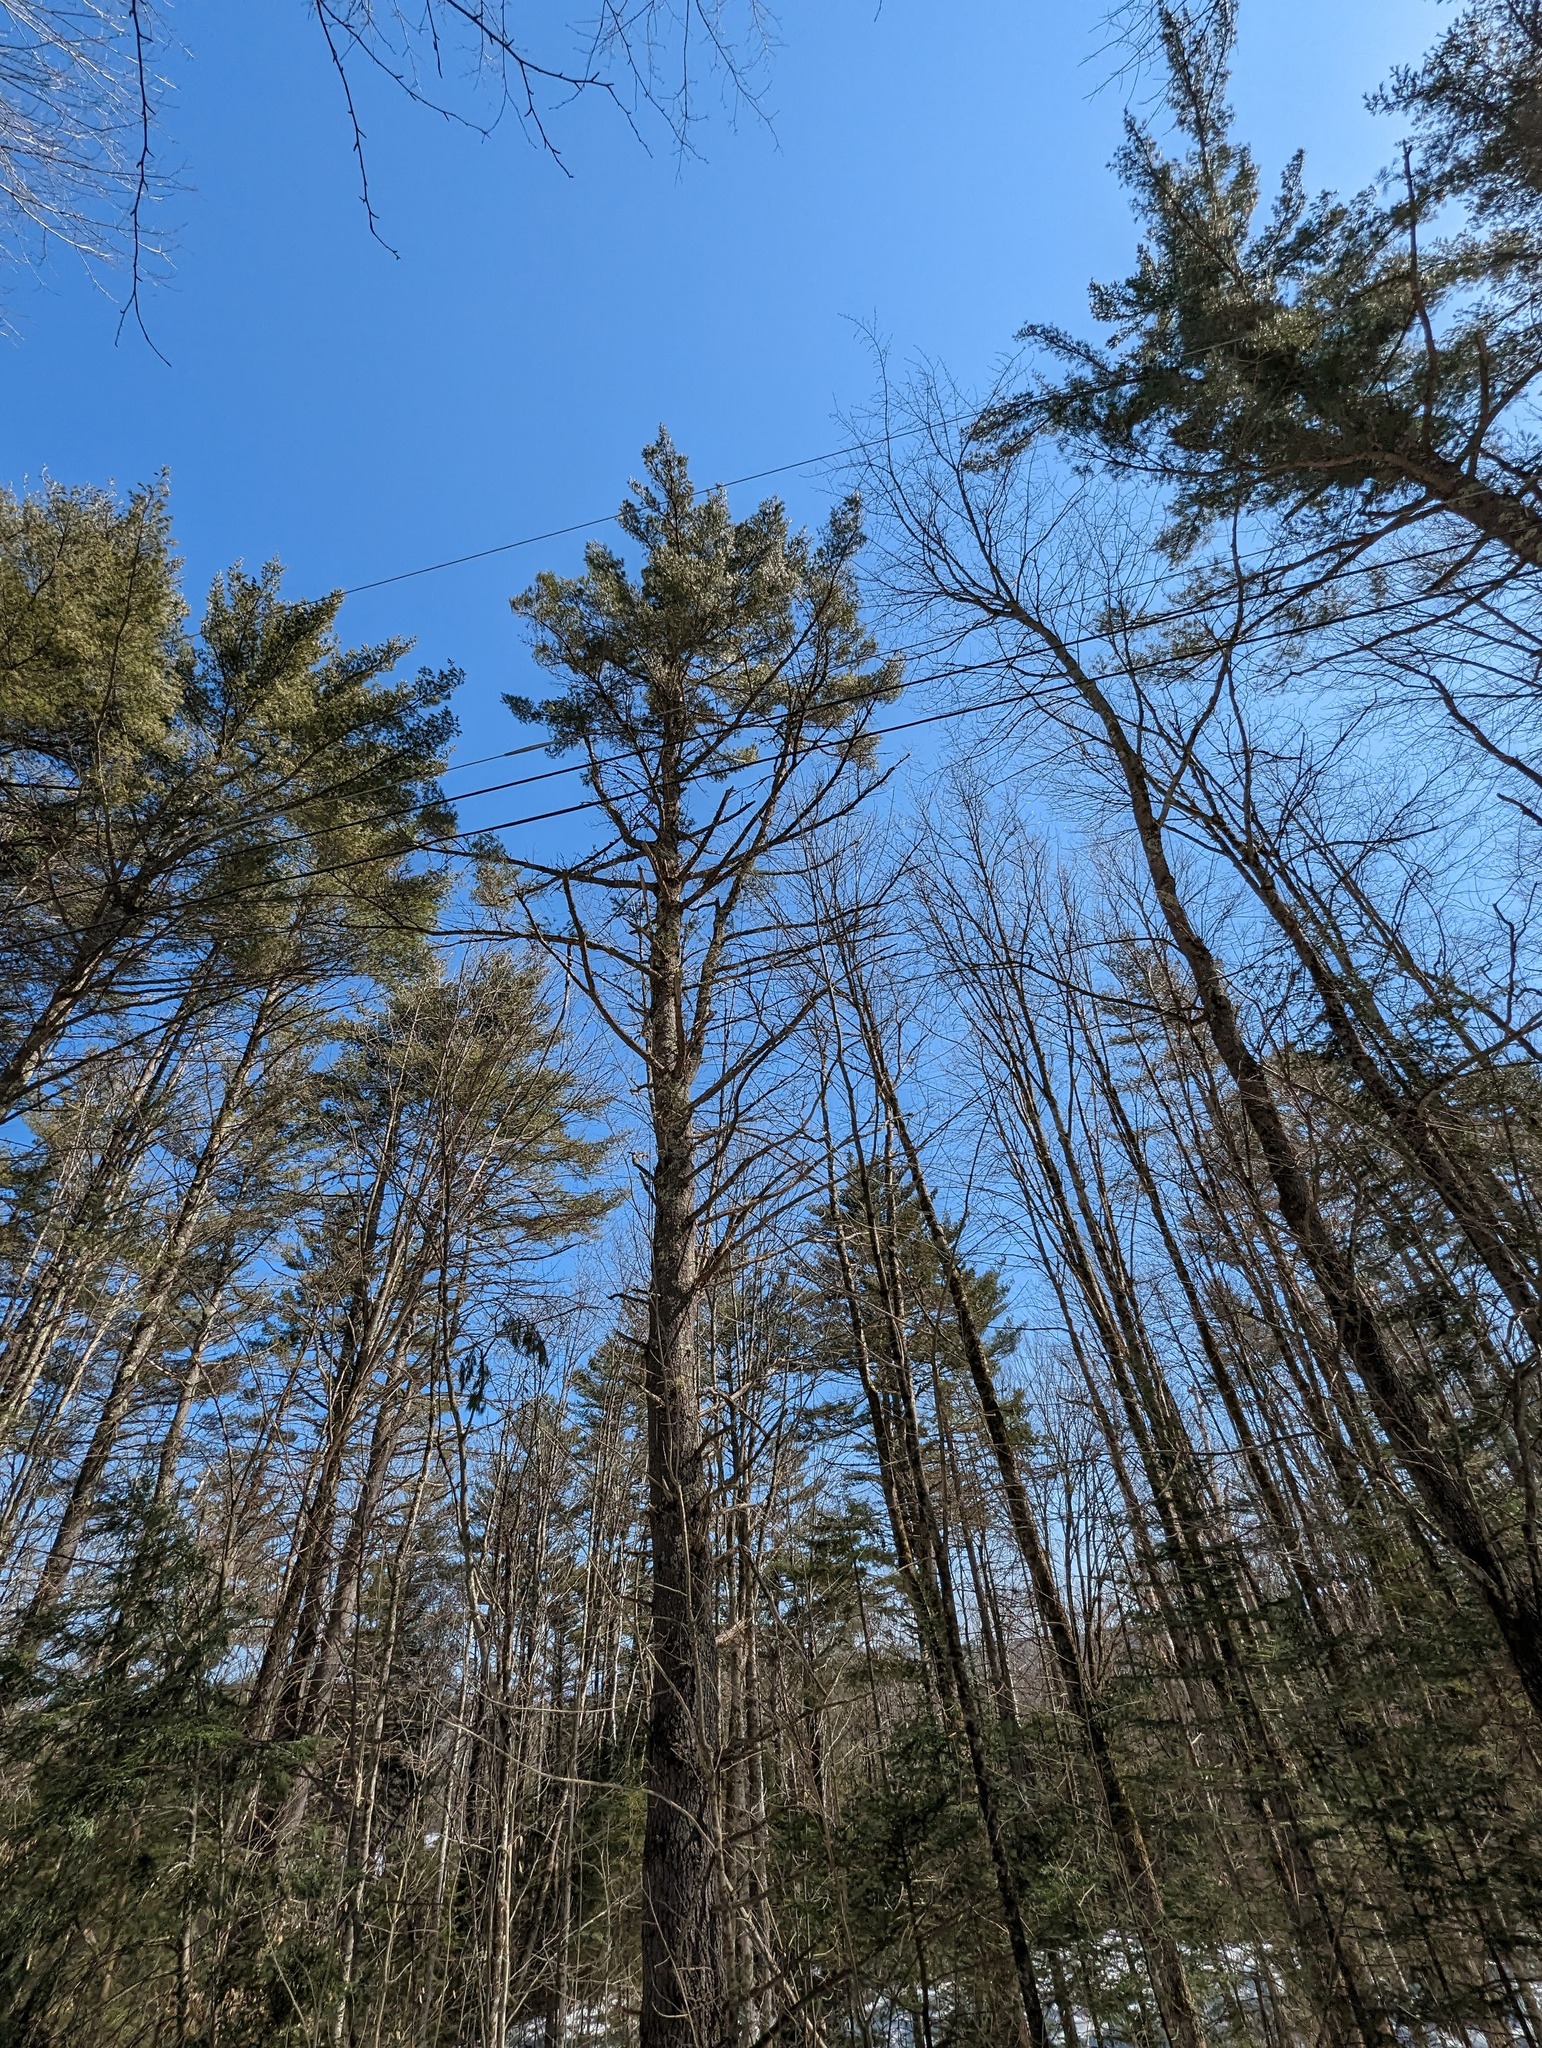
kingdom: Plantae
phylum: Tracheophyta
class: Pinopsida
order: Pinales
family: Pinaceae
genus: Pinus
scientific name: Pinus strobus
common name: Weymouth pine
